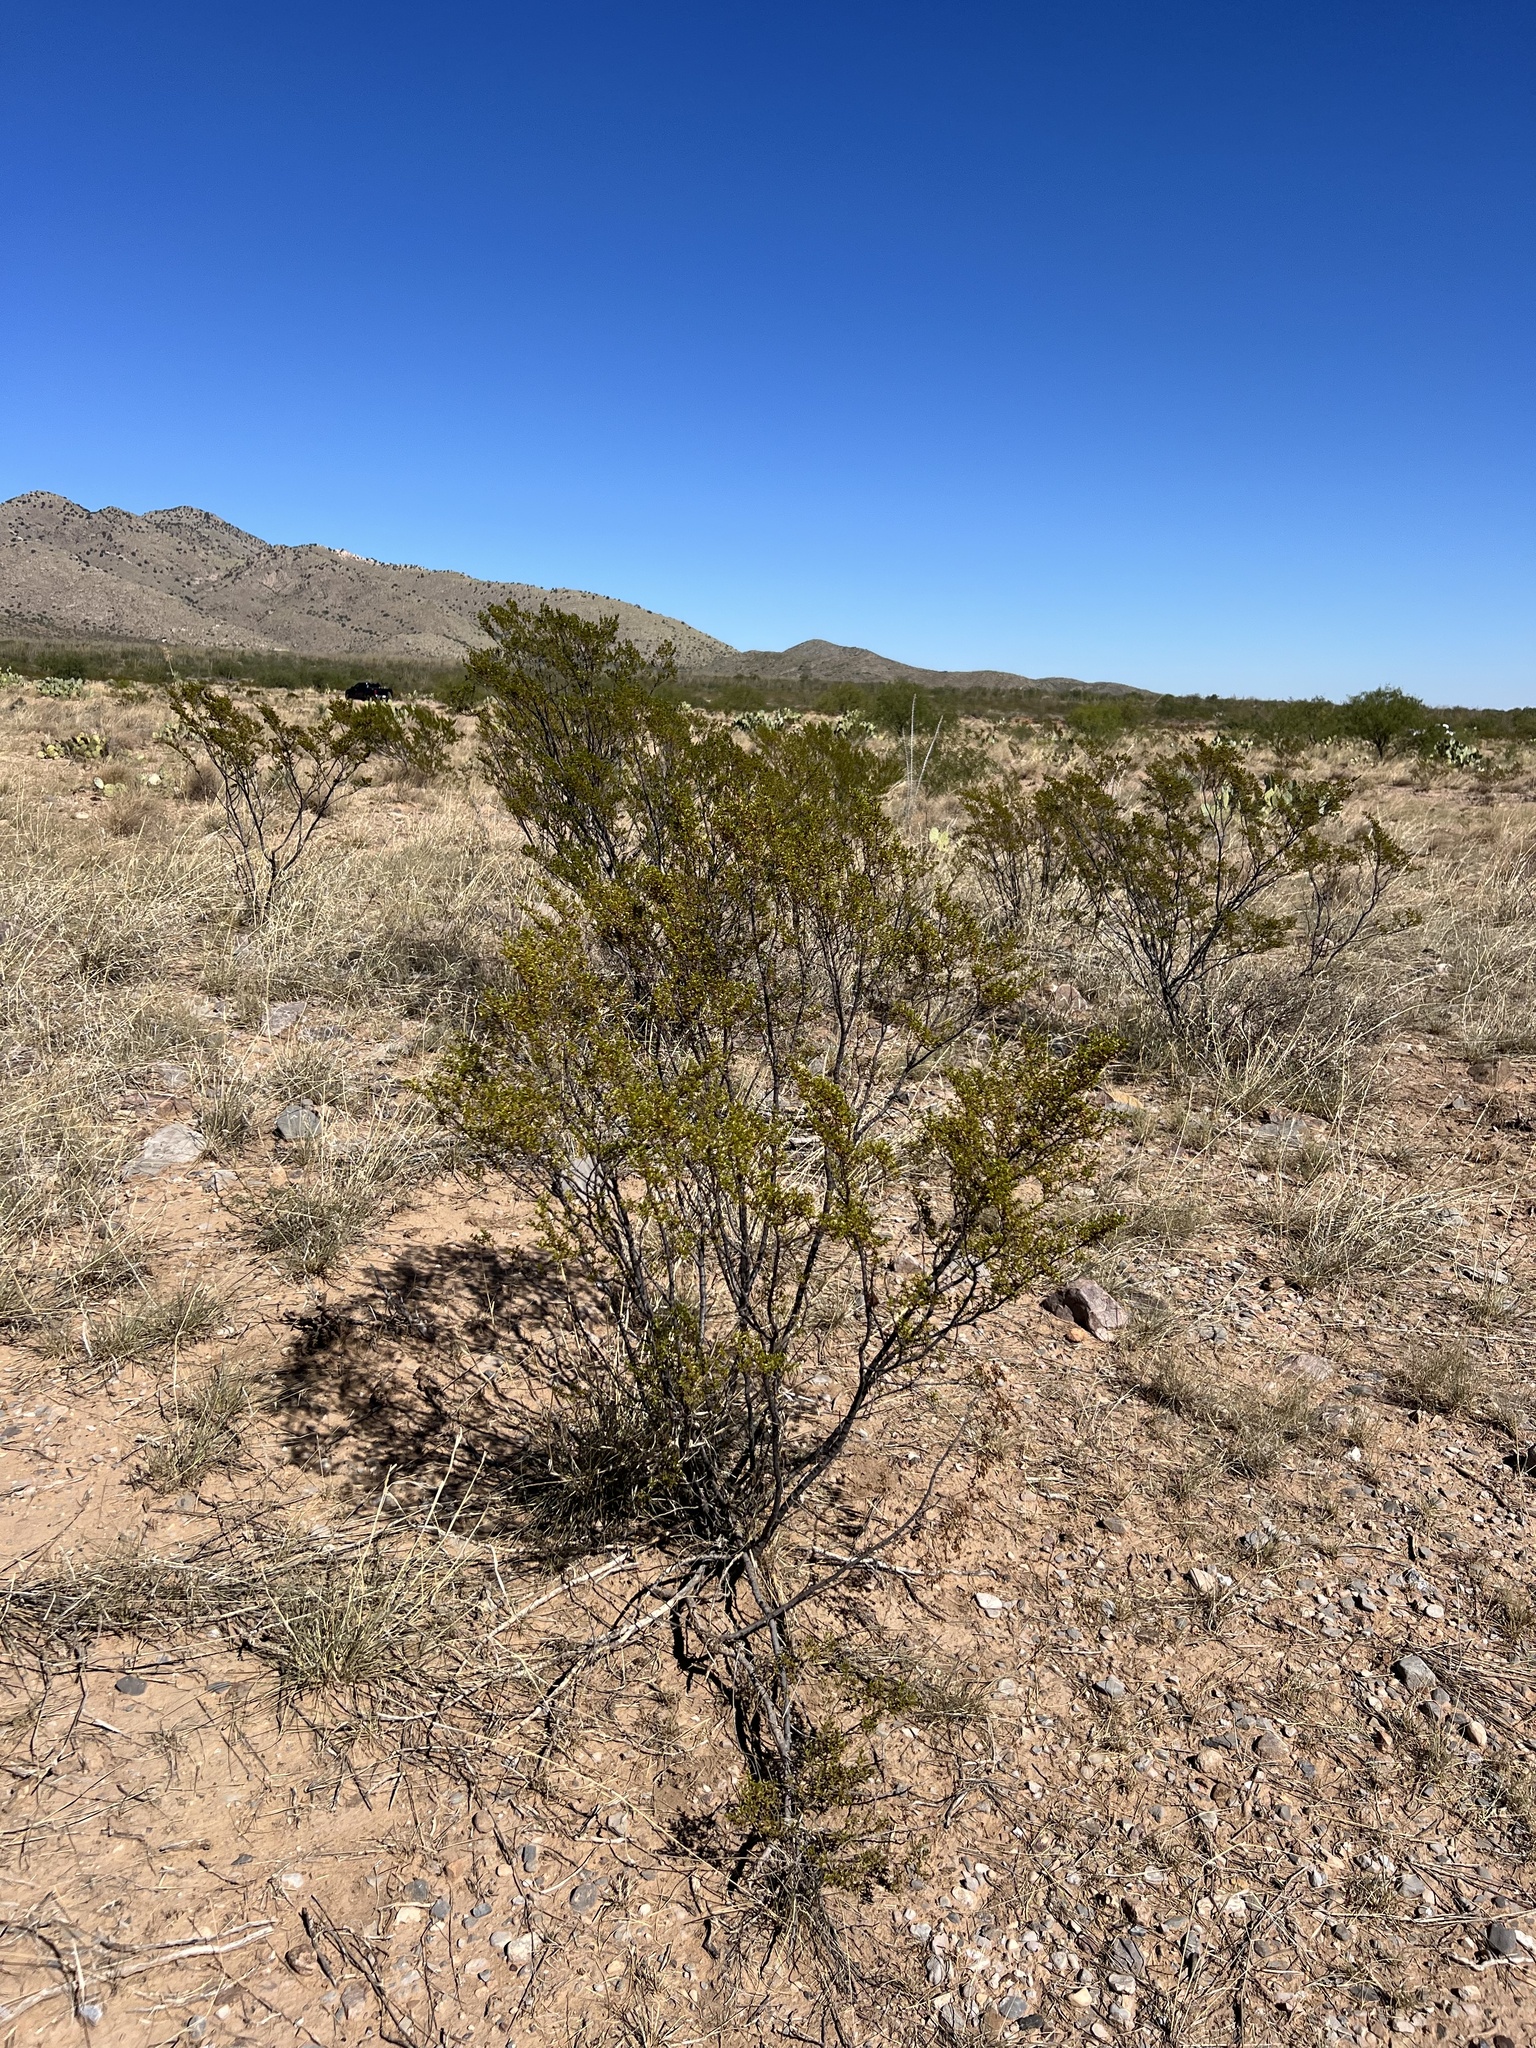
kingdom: Plantae
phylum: Tracheophyta
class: Magnoliopsida
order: Zygophyllales
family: Zygophyllaceae
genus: Larrea
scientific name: Larrea tridentata
